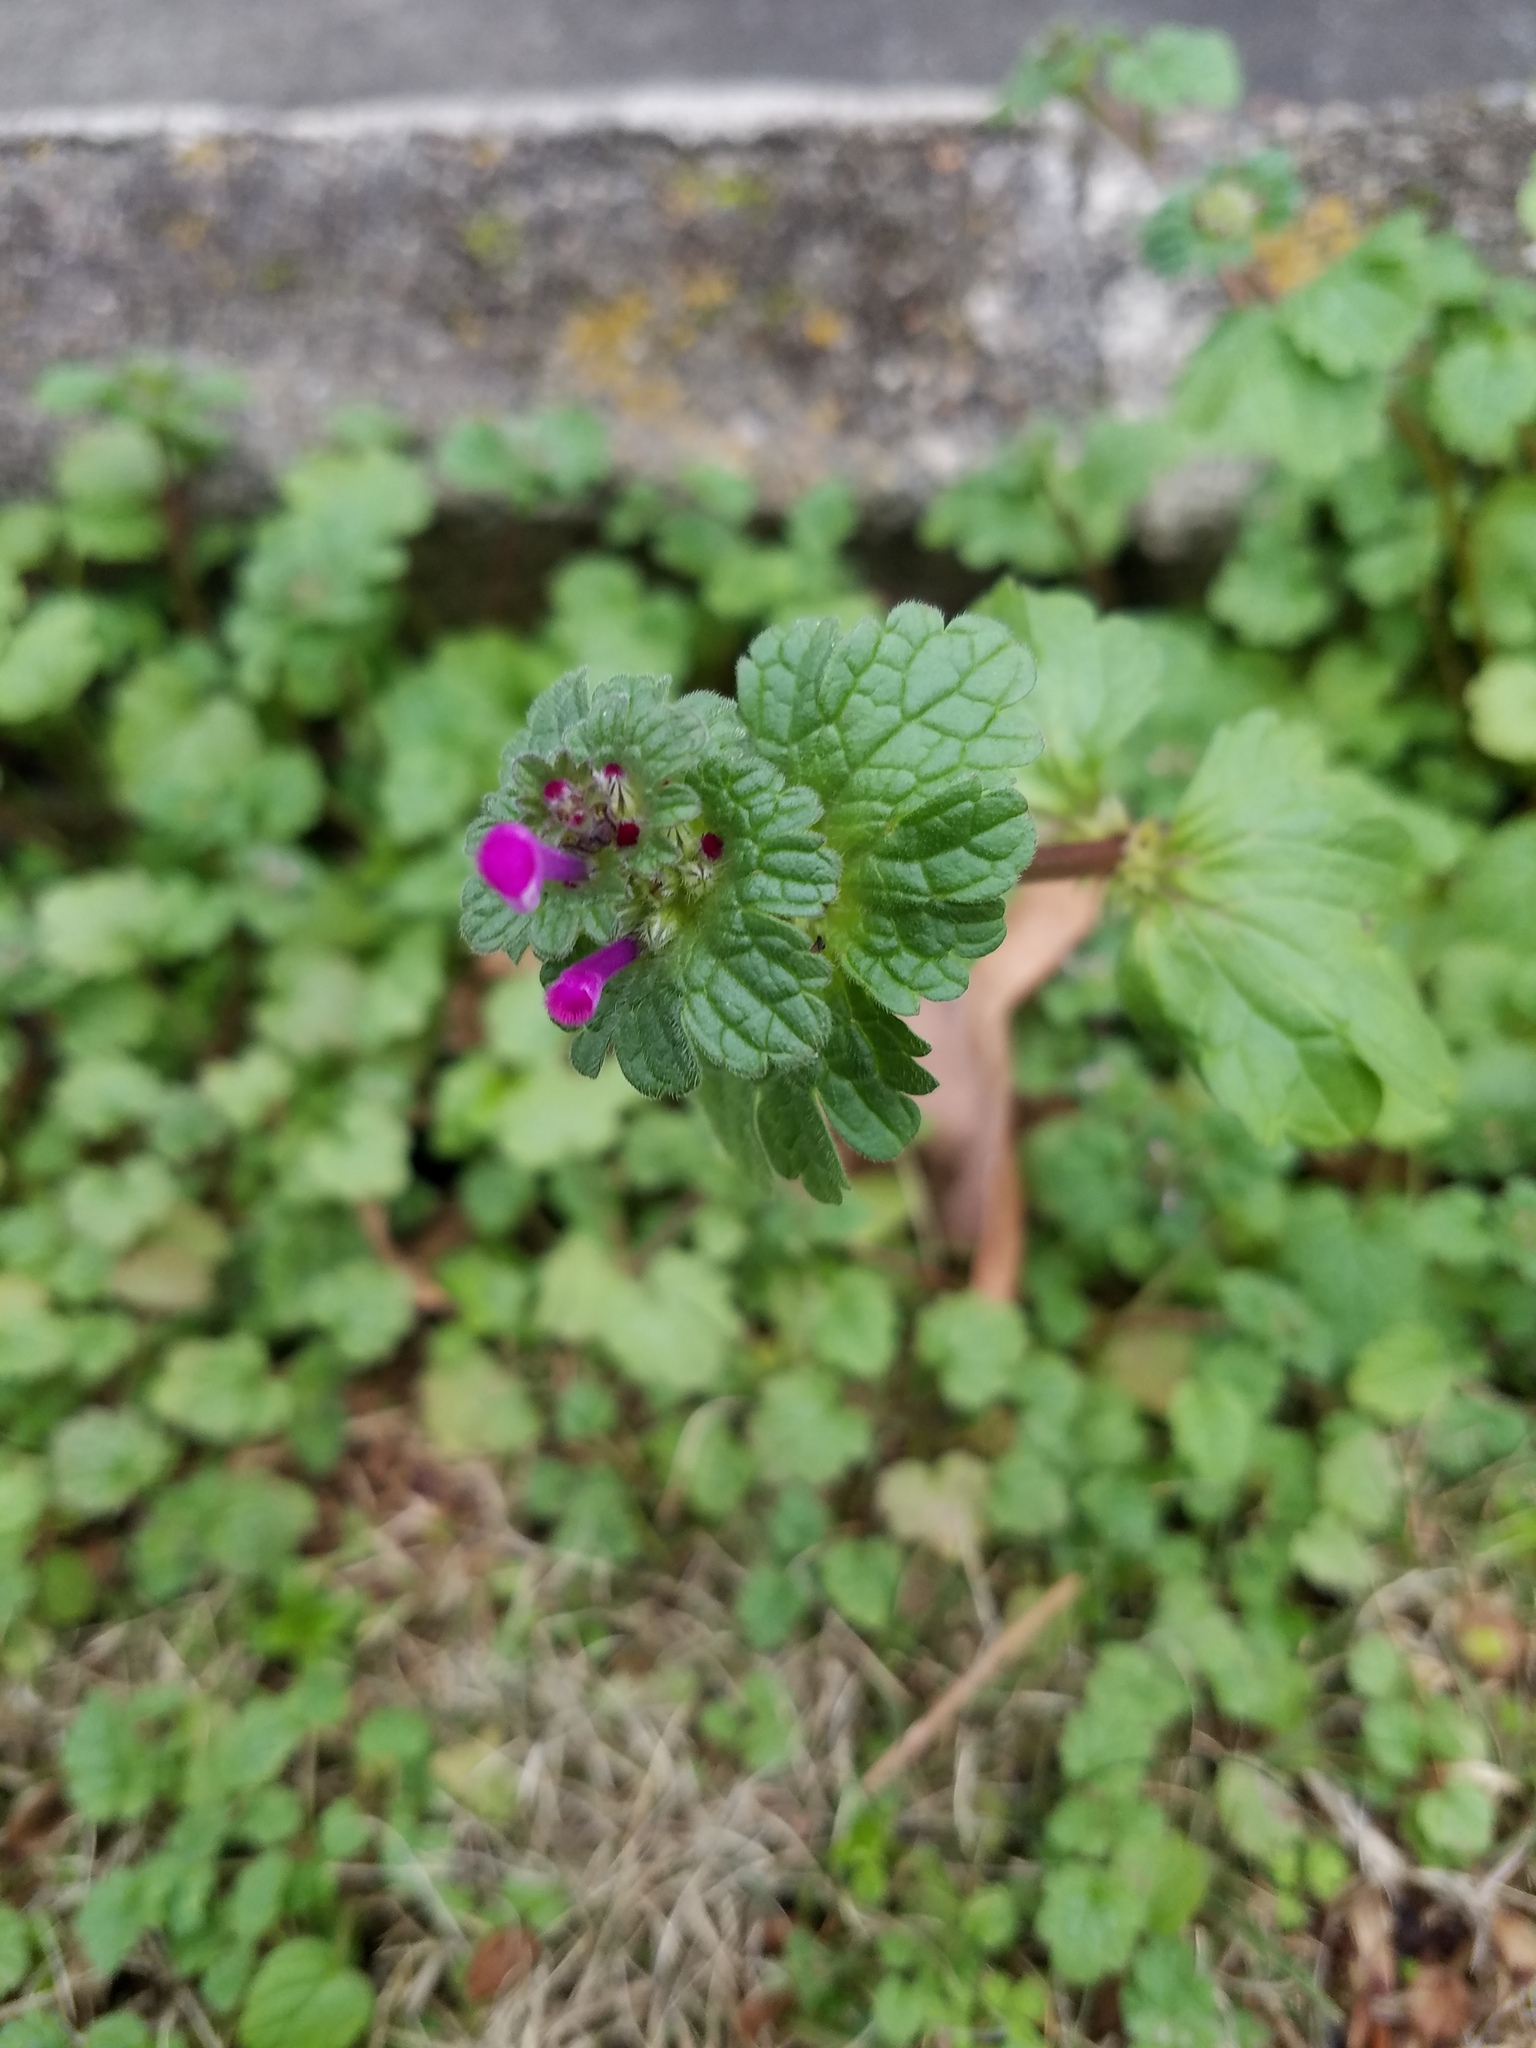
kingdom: Plantae
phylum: Tracheophyta
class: Magnoliopsida
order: Lamiales
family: Lamiaceae
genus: Lamium
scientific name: Lamium amplexicaule
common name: Henbit dead-nettle
